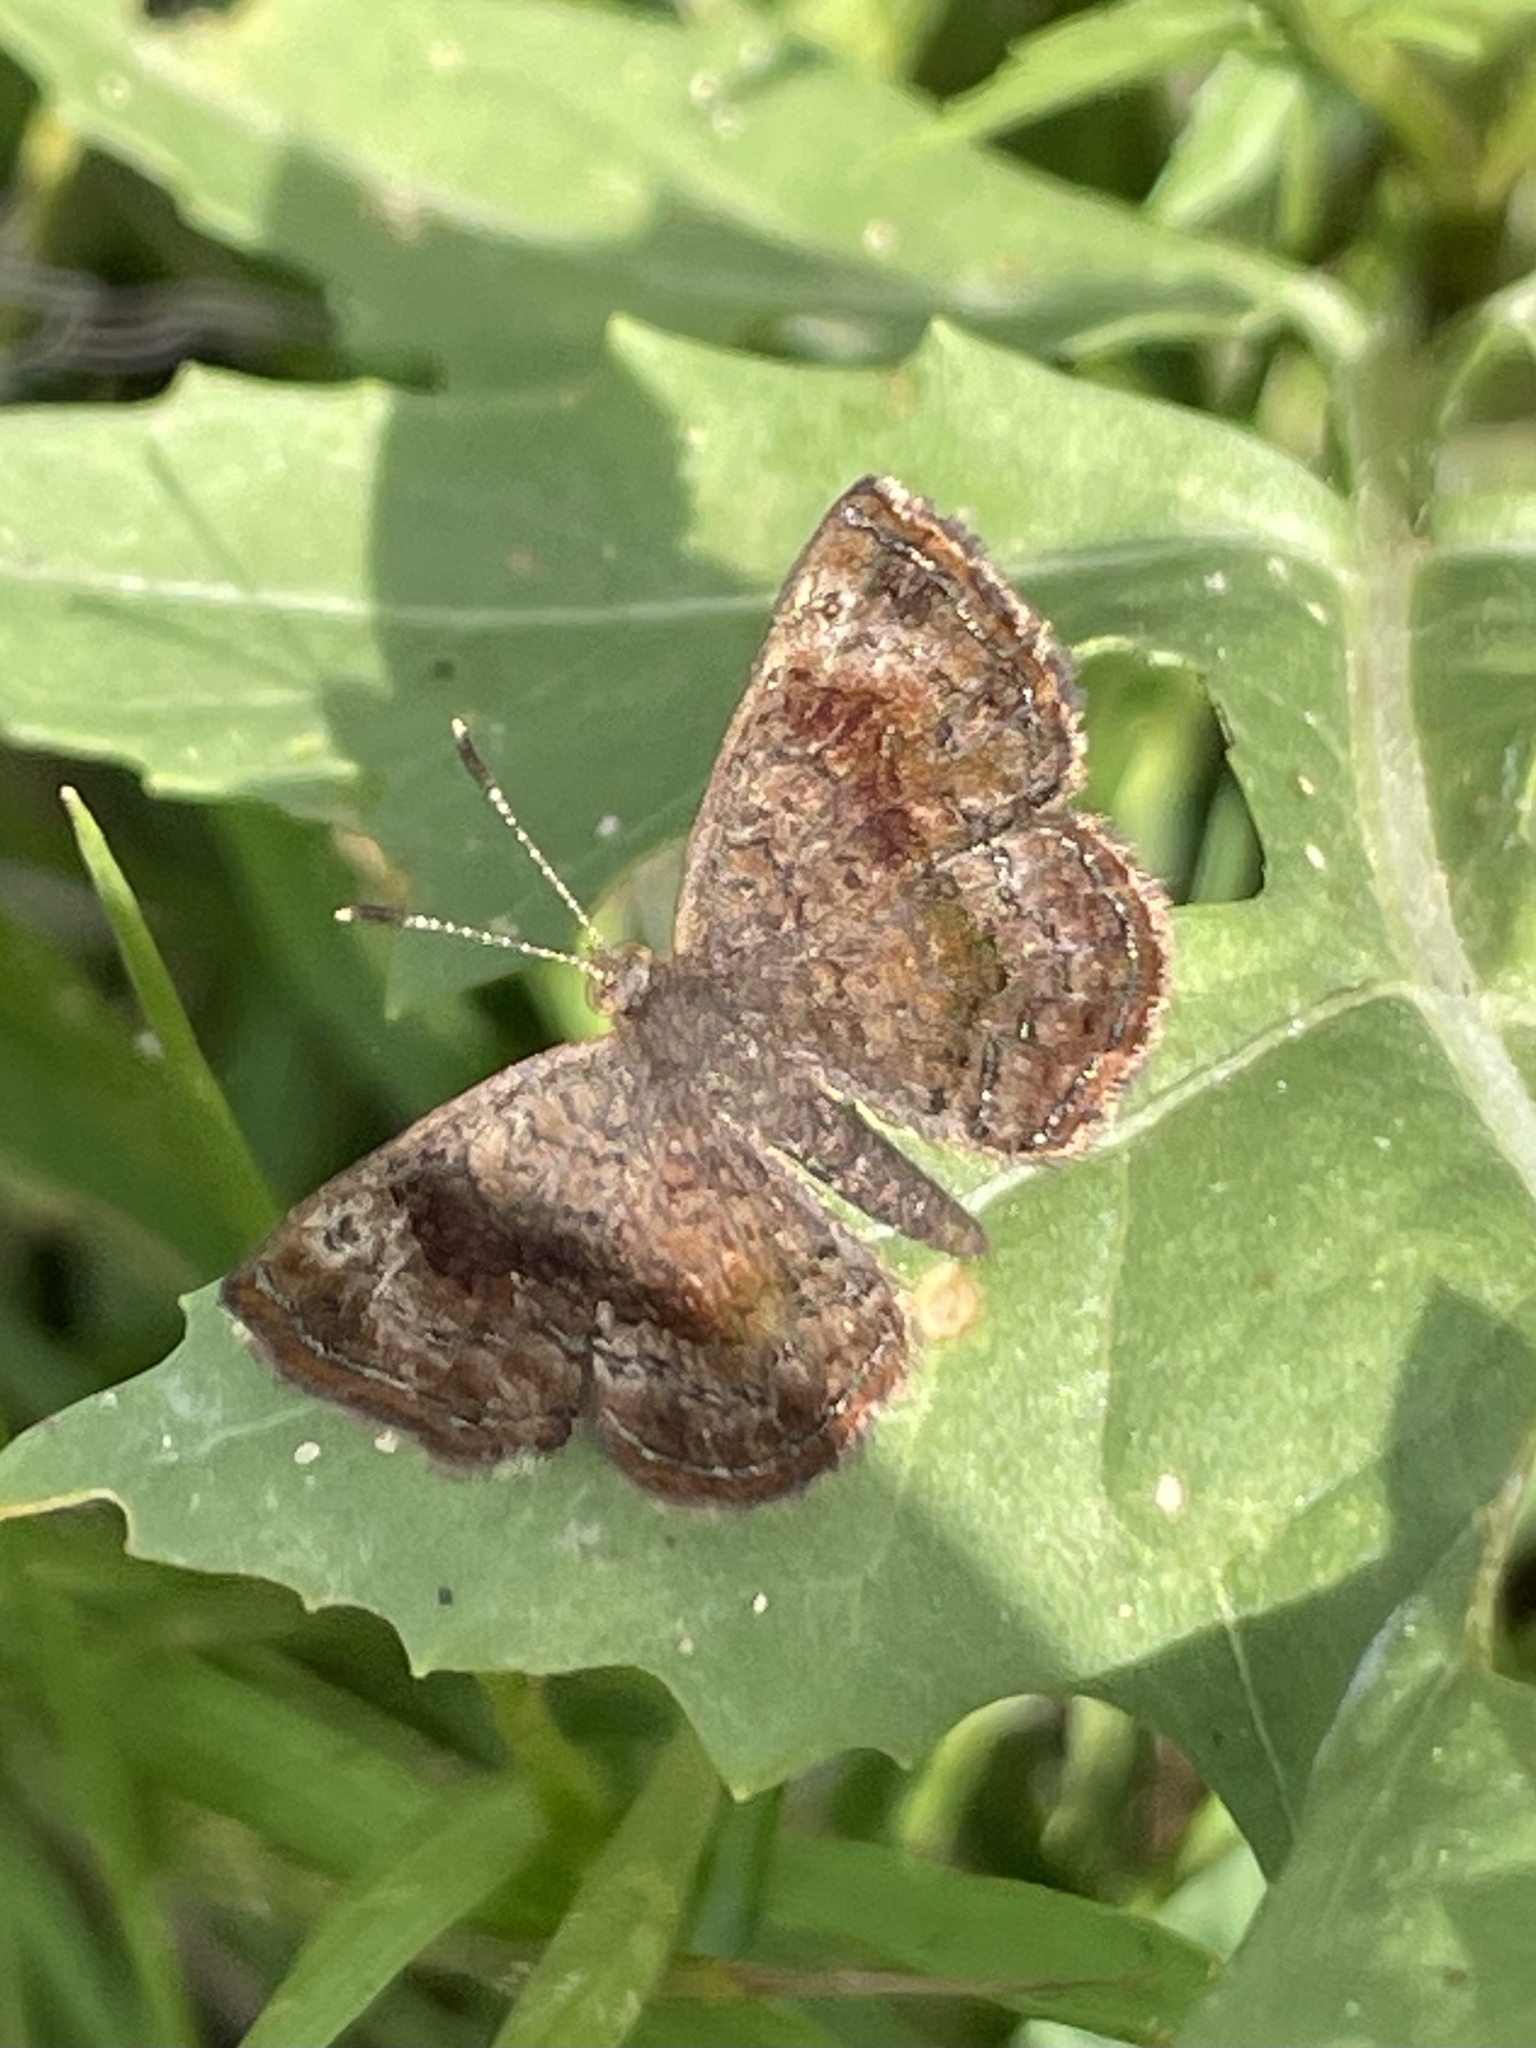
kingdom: Animalia
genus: Calephelis
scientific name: Calephelis perditalis
